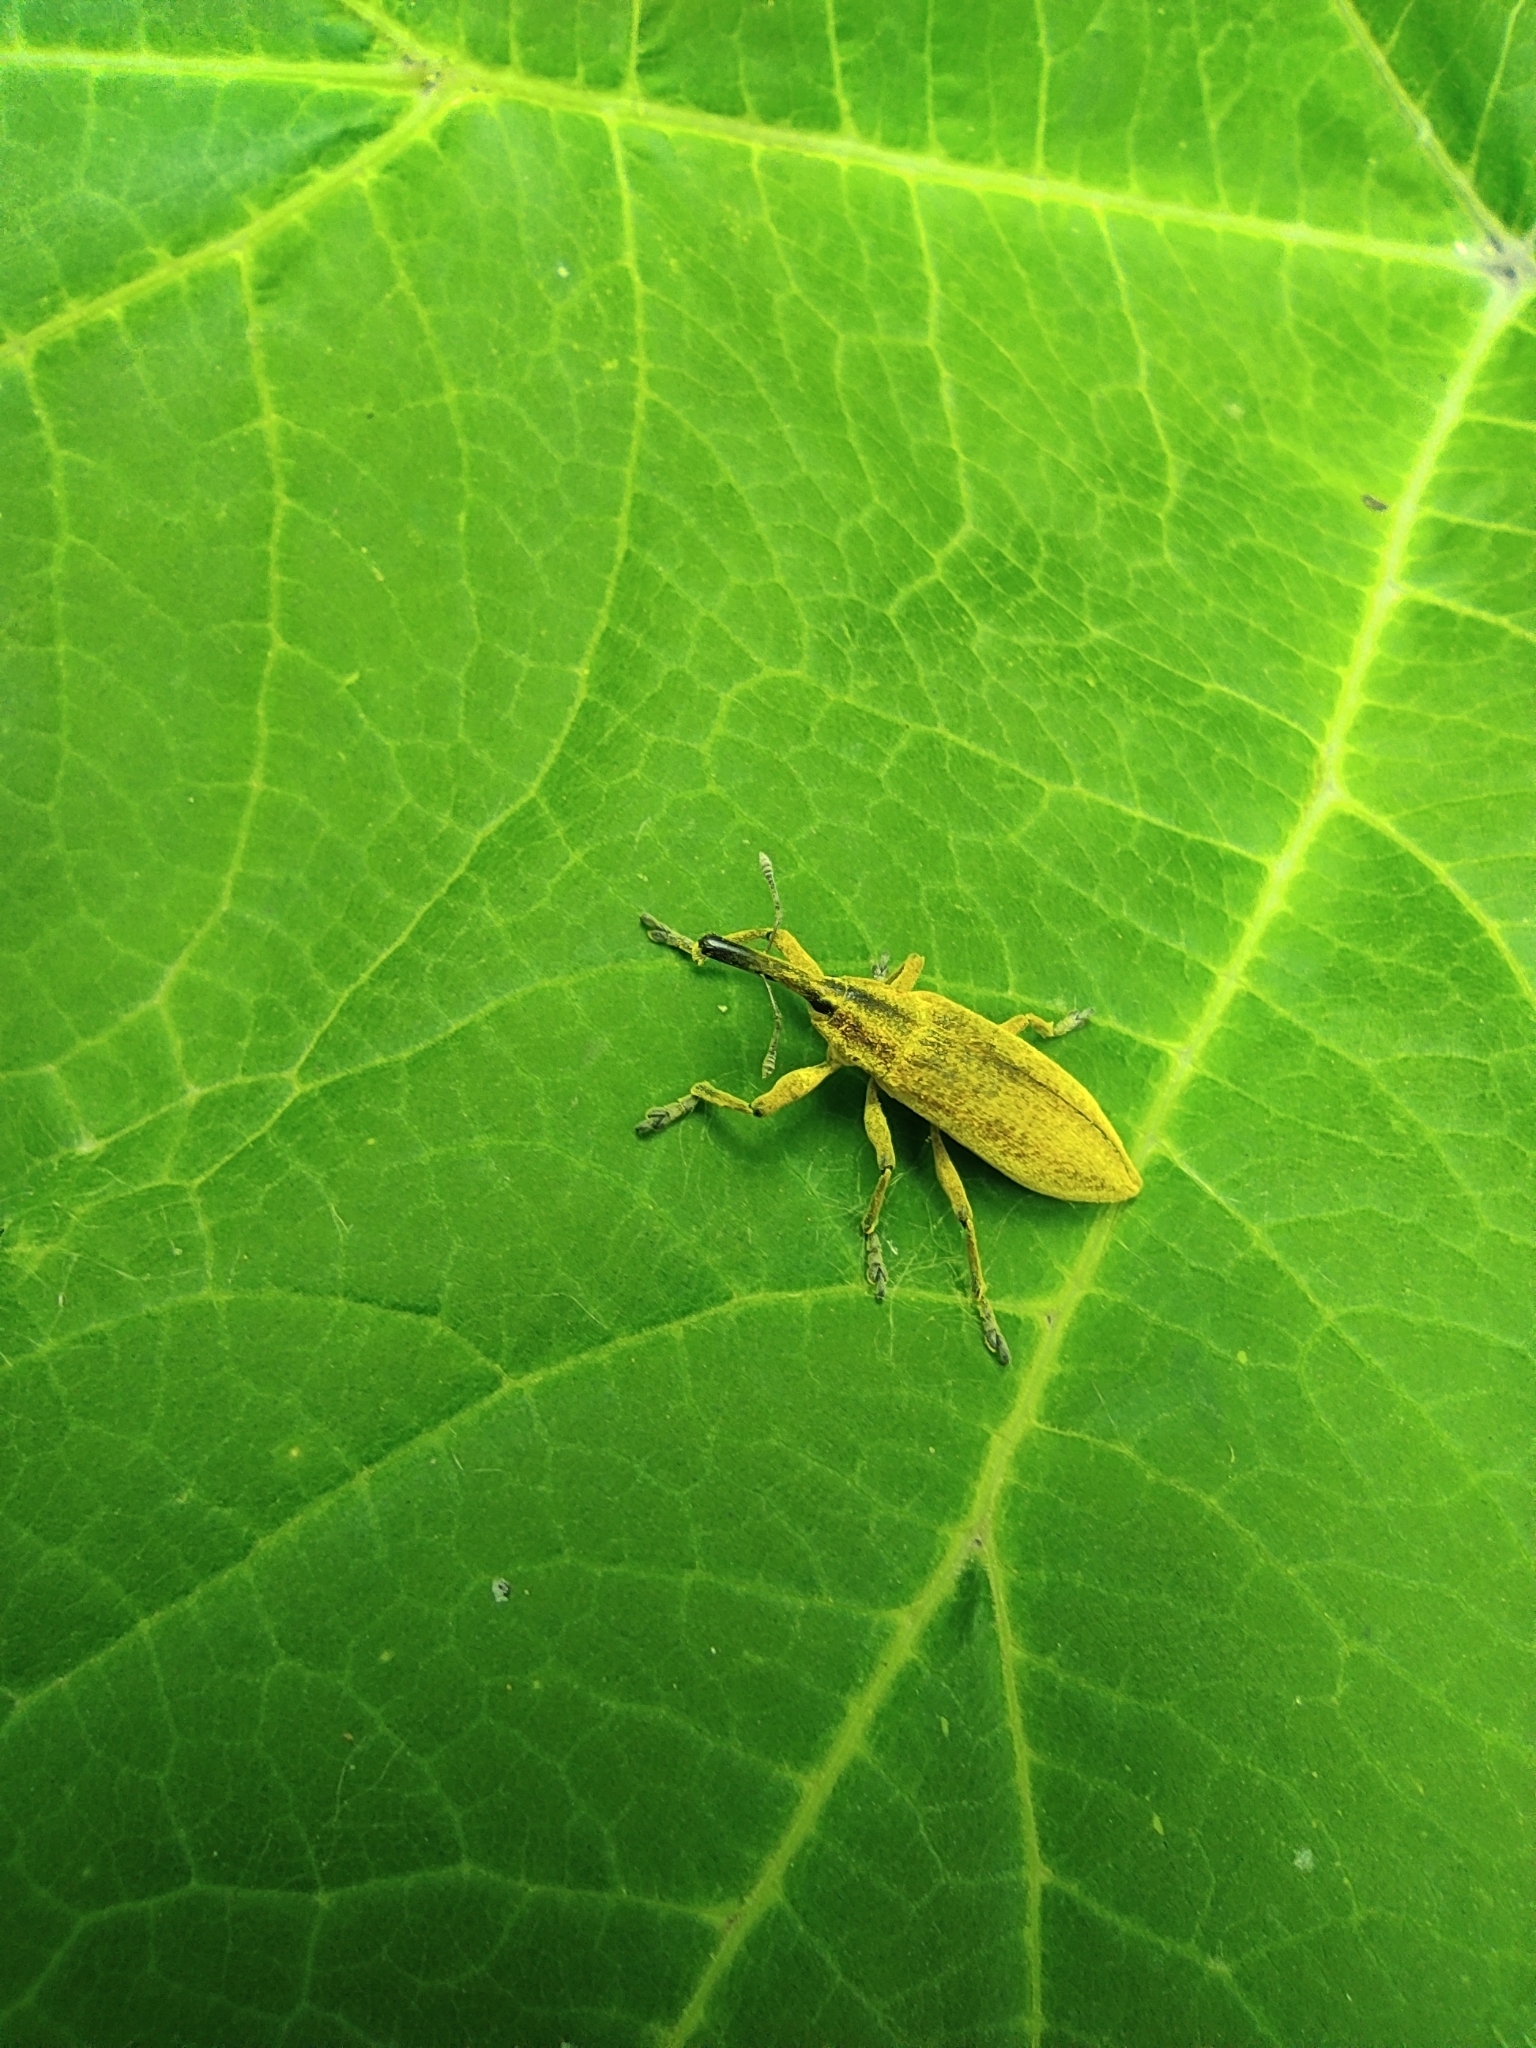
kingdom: Animalia
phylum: Arthropoda
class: Insecta
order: Coleoptera
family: Curculionidae
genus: Lixus
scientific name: Lixus iridis
